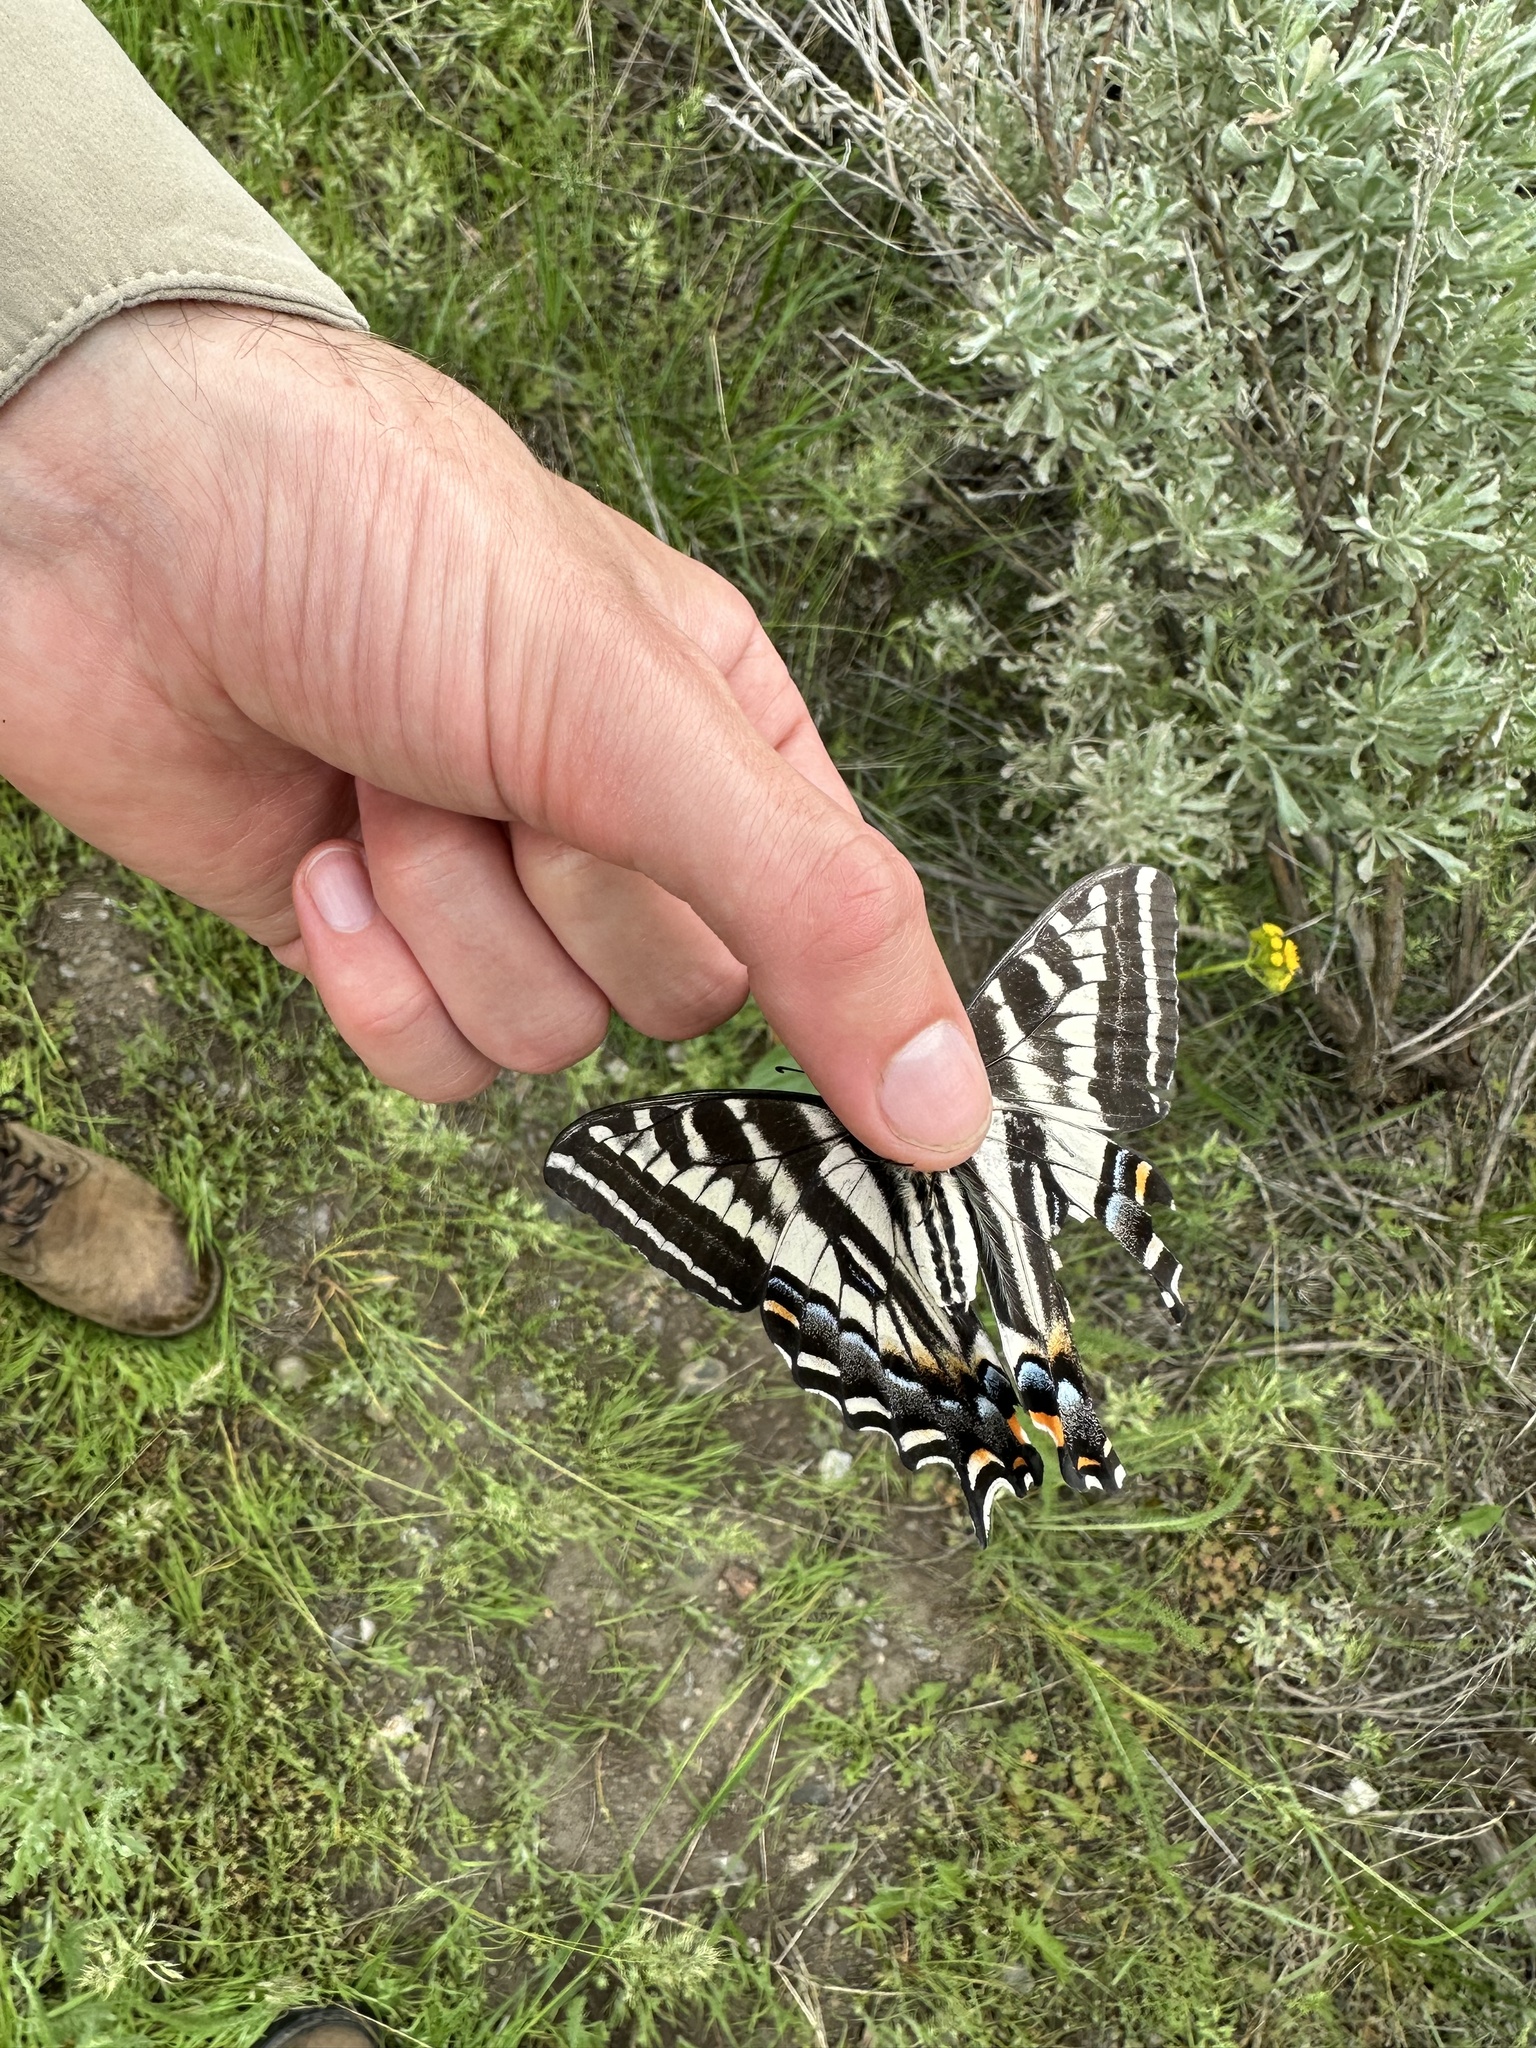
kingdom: Animalia
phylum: Arthropoda
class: Insecta
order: Lepidoptera
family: Papilionidae
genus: Papilio
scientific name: Papilio eurymedon
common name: Pale tiger swallowtail
